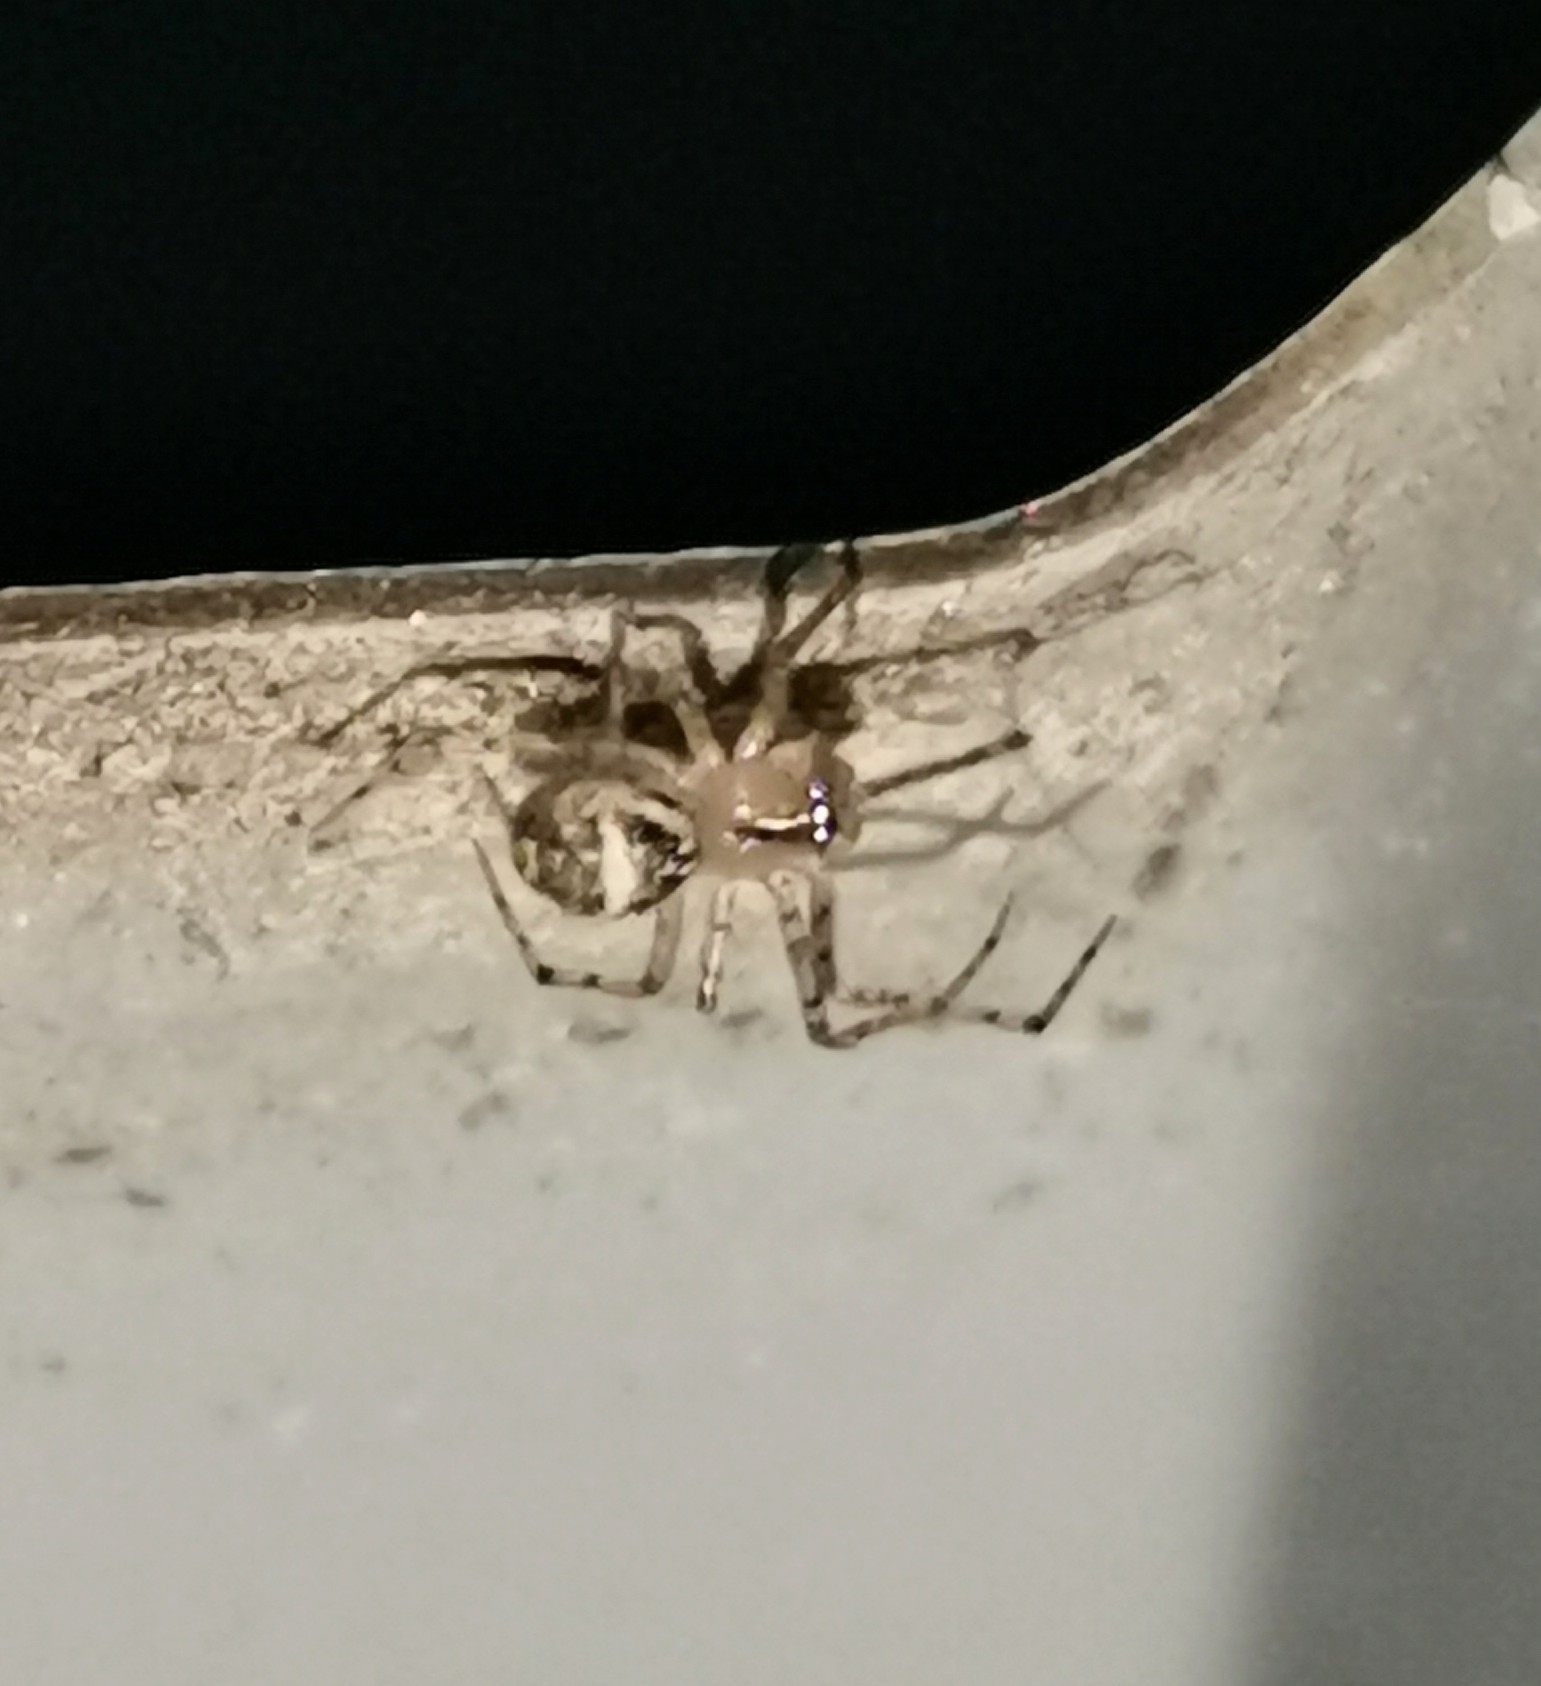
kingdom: Animalia
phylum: Arthropoda
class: Arachnida
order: Araneae
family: Theridiidae
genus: Platnickina
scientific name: Platnickina tincta
